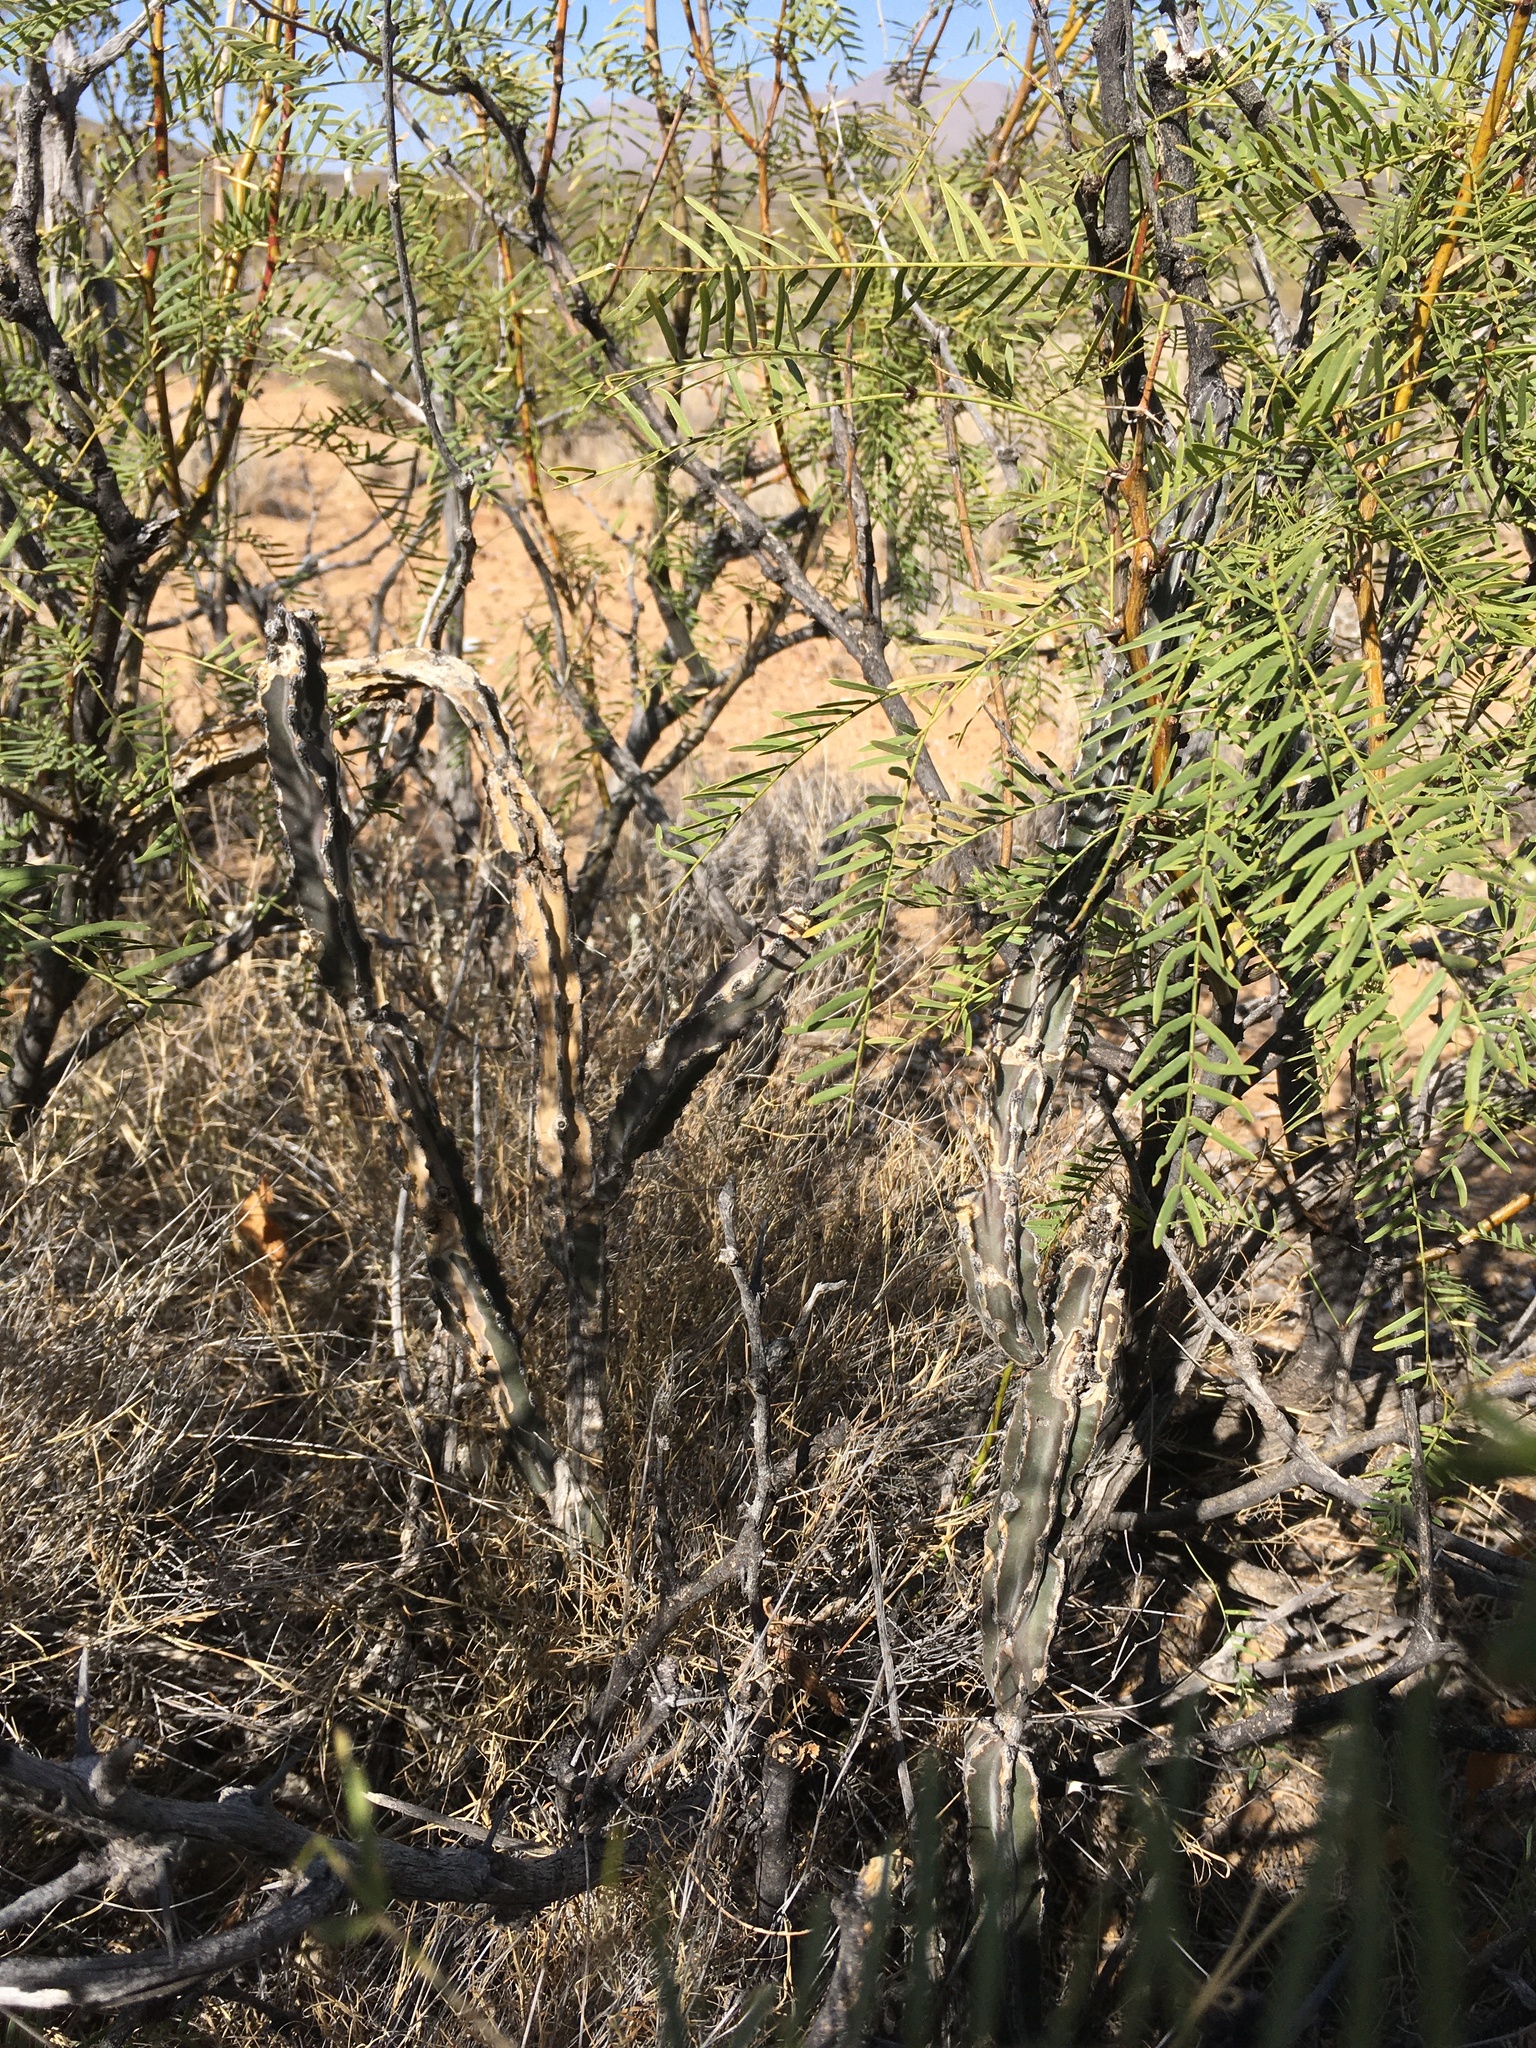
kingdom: Plantae
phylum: Tracheophyta
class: Magnoliopsida
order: Caryophyllales
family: Cactaceae
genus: Peniocereus
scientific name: Peniocereus greggii
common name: Desert night-blooming cereus
